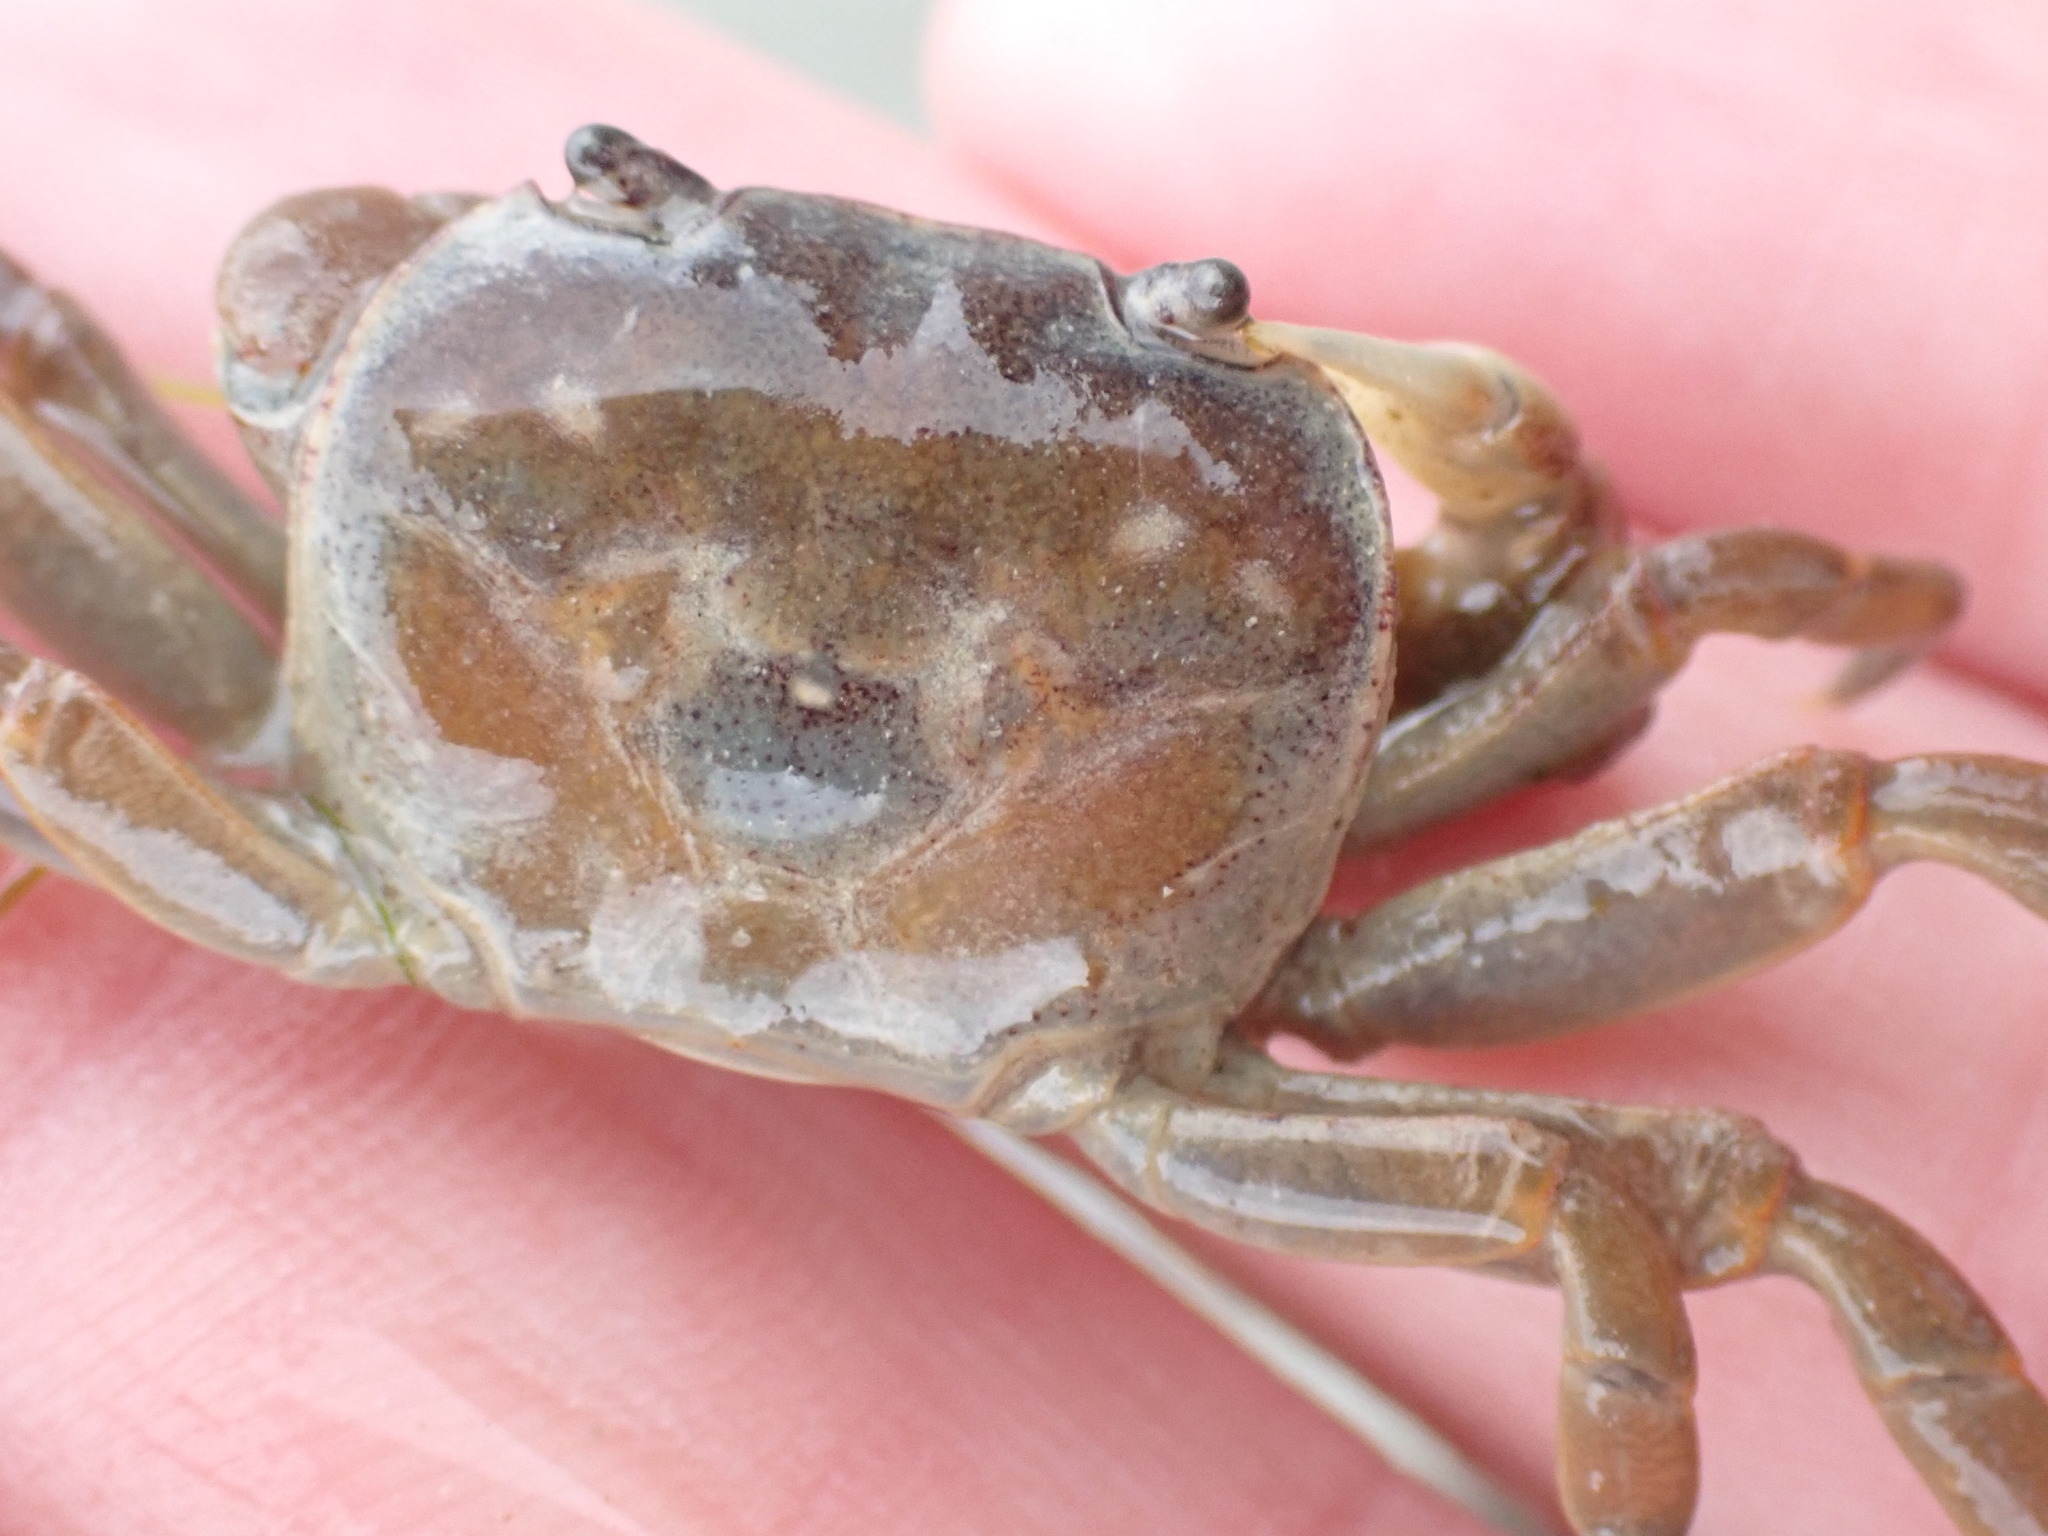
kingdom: Animalia
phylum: Arthropoda
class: Malacostraca
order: Decapoda
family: Varunidae
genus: Cyclograpsus
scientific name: Cyclograpsus lavauxi
